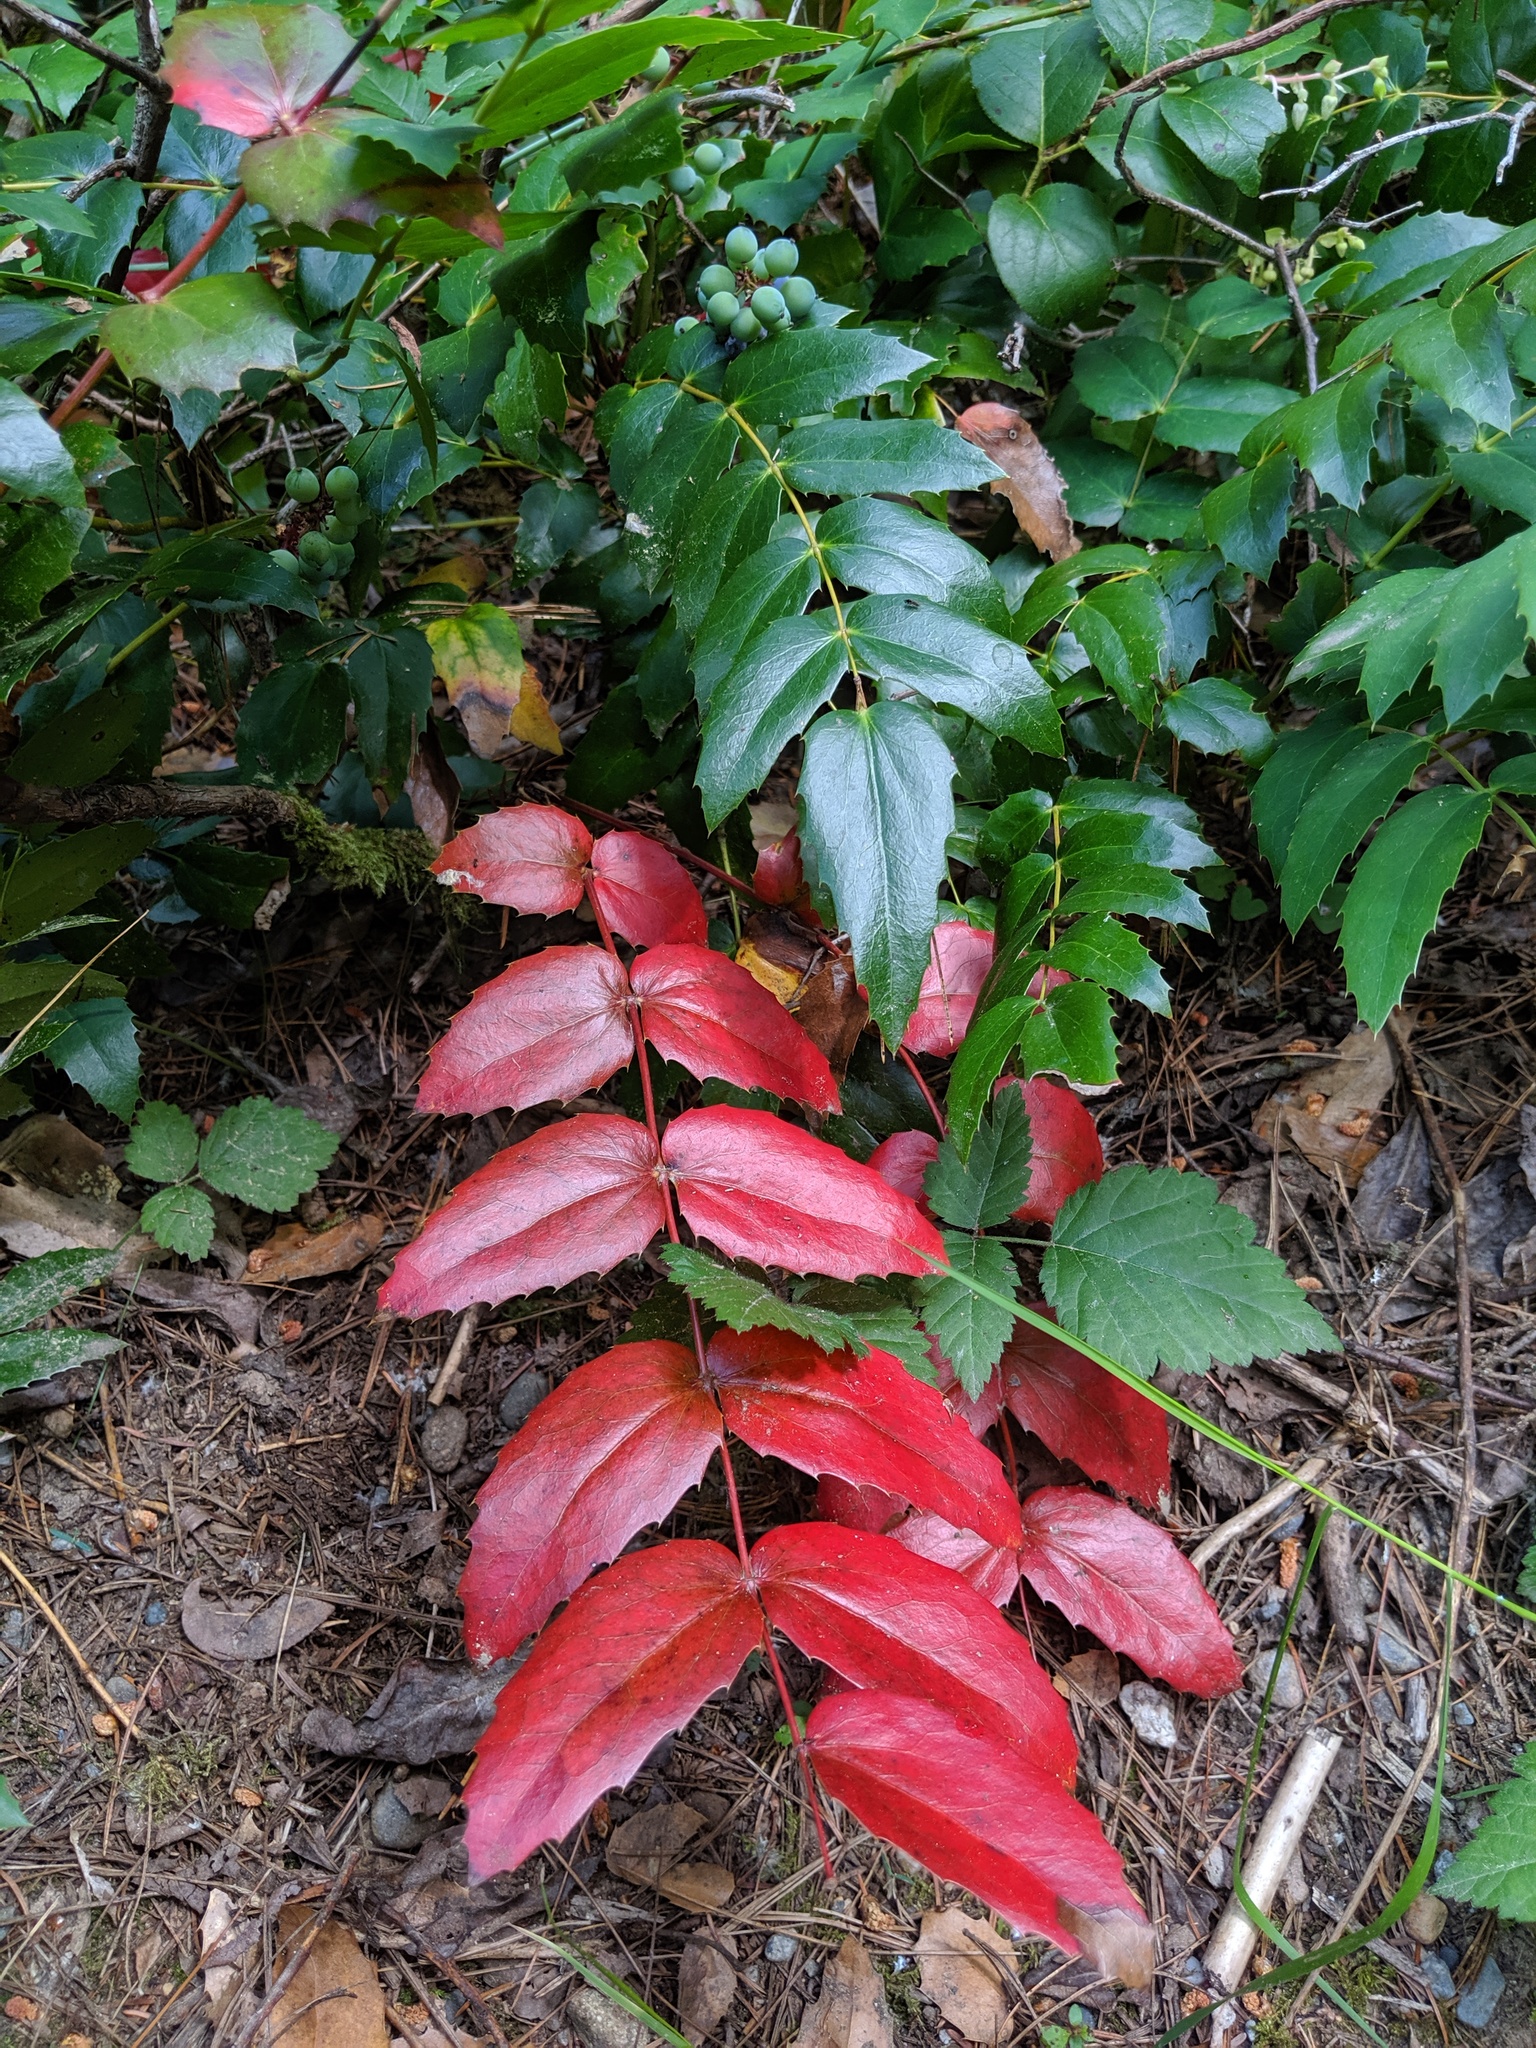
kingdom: Plantae
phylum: Tracheophyta
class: Magnoliopsida
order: Ranunculales
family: Berberidaceae
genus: Mahonia
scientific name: Mahonia nervosa
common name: Cascade oregon-grape
